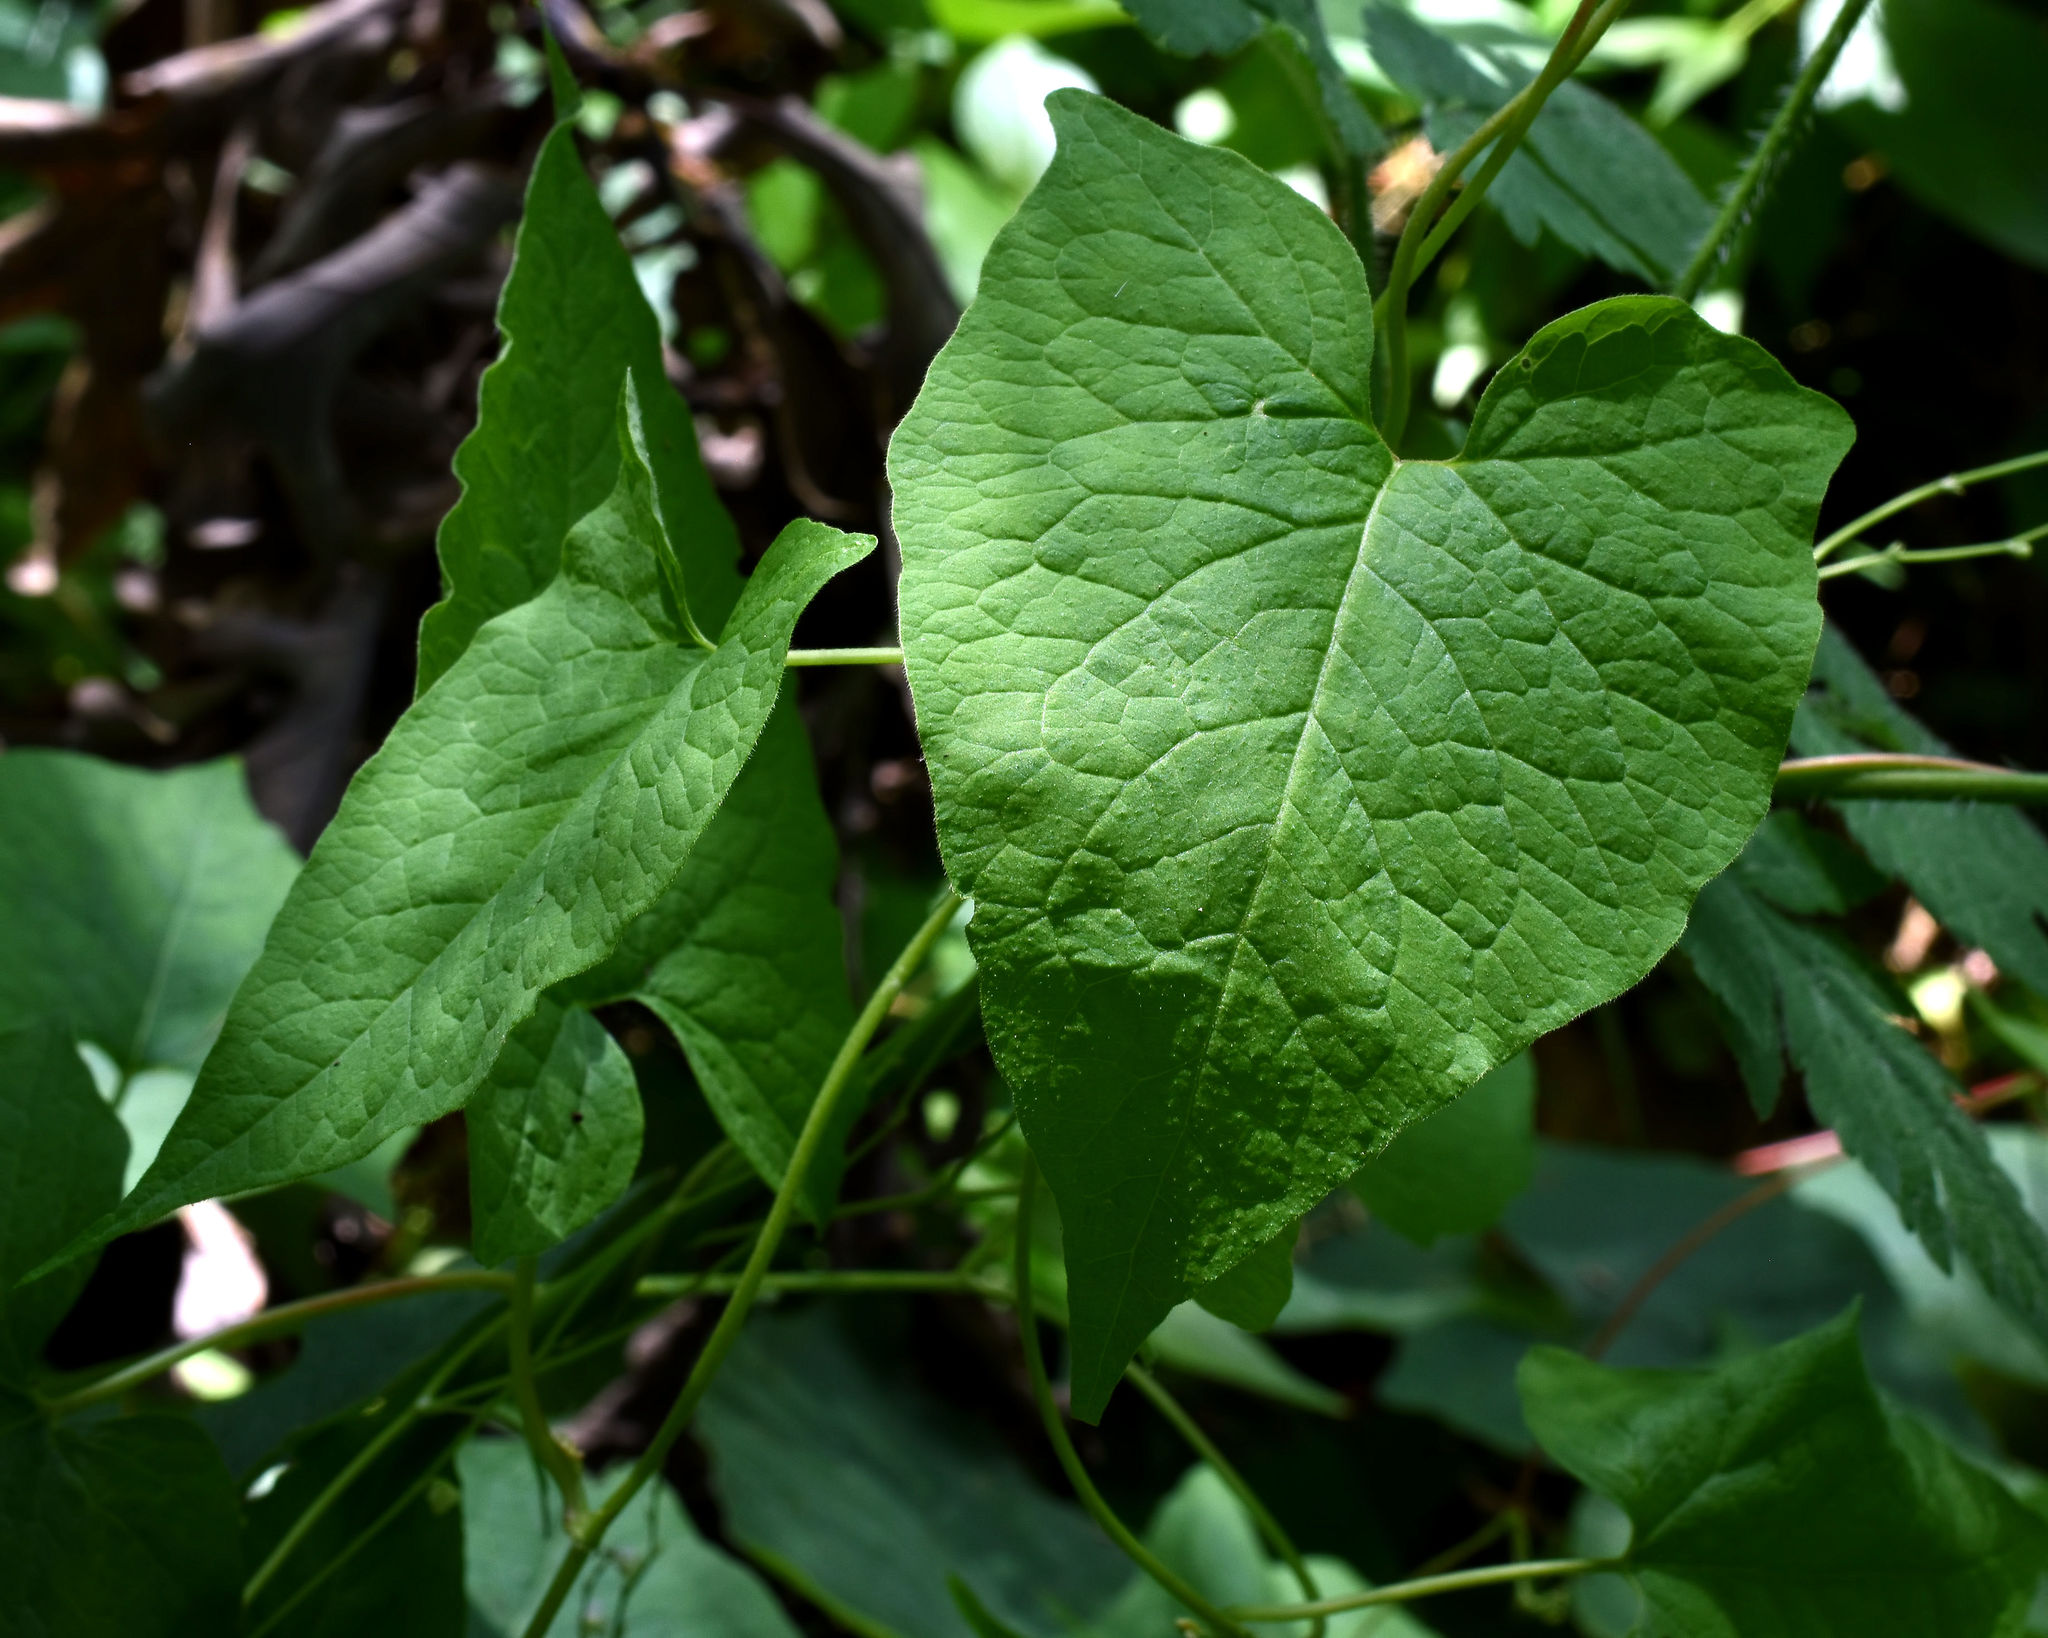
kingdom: Plantae
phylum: Tracheophyta
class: Magnoliopsida
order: Caryophyllales
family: Polygonaceae
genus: Parogonum
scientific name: Parogonum ciliinode
